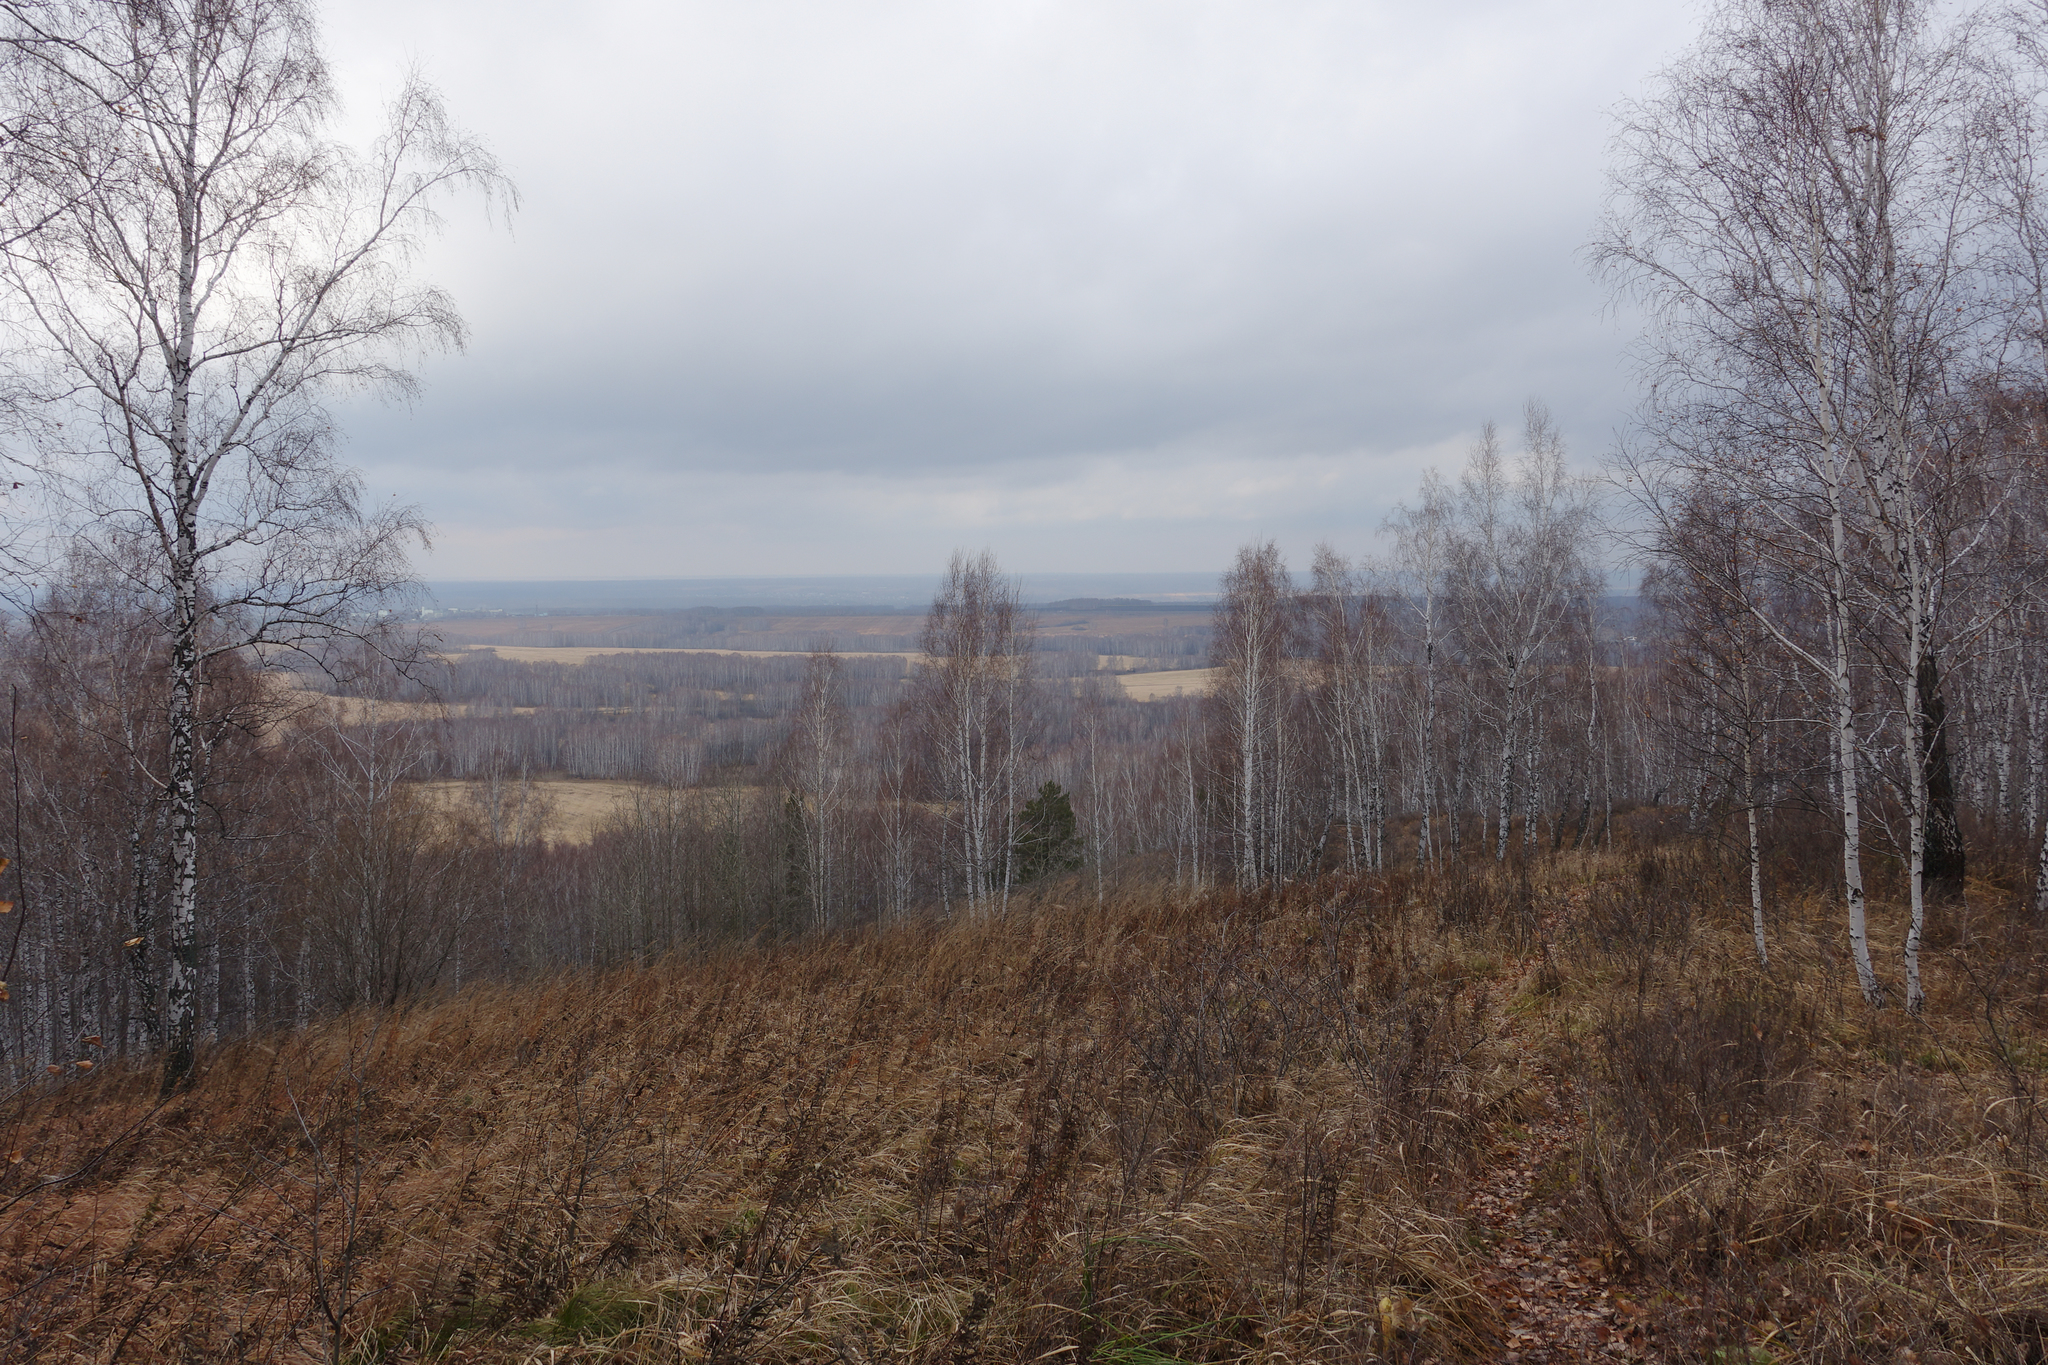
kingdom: Plantae
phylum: Tracheophyta
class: Magnoliopsida
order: Fagales
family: Betulaceae
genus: Betula
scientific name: Betula pendula
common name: Silver birch
